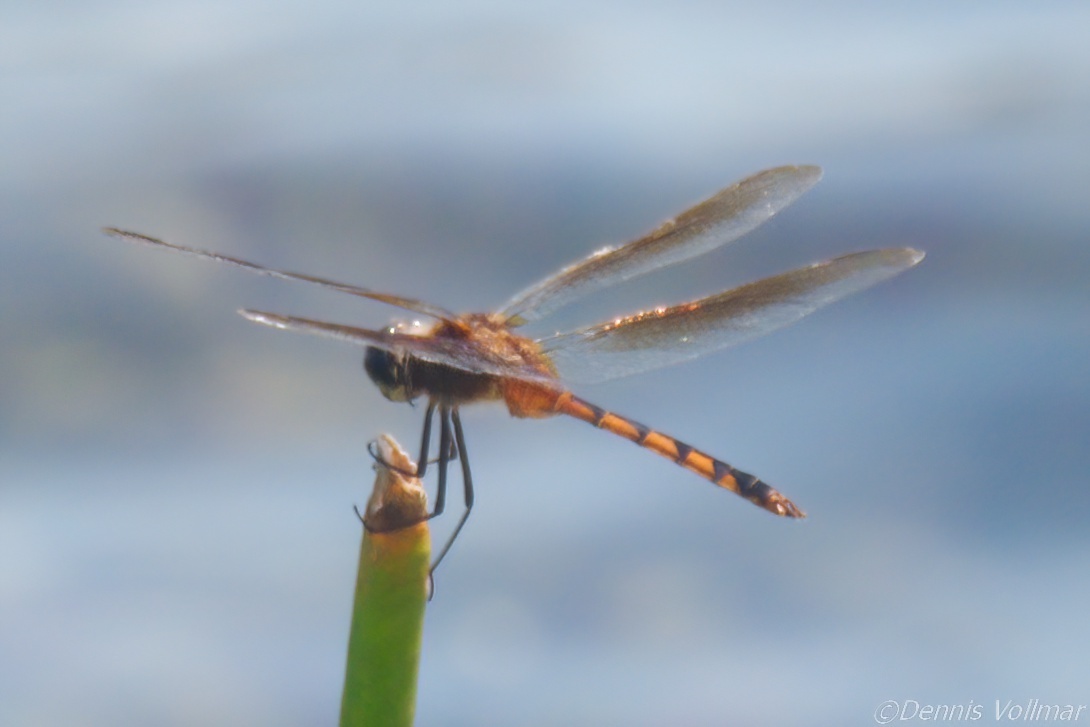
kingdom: Animalia
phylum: Arthropoda
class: Insecta
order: Odonata
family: Libellulidae
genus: Brachymesia
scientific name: Brachymesia herbida
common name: Tawny pennant
